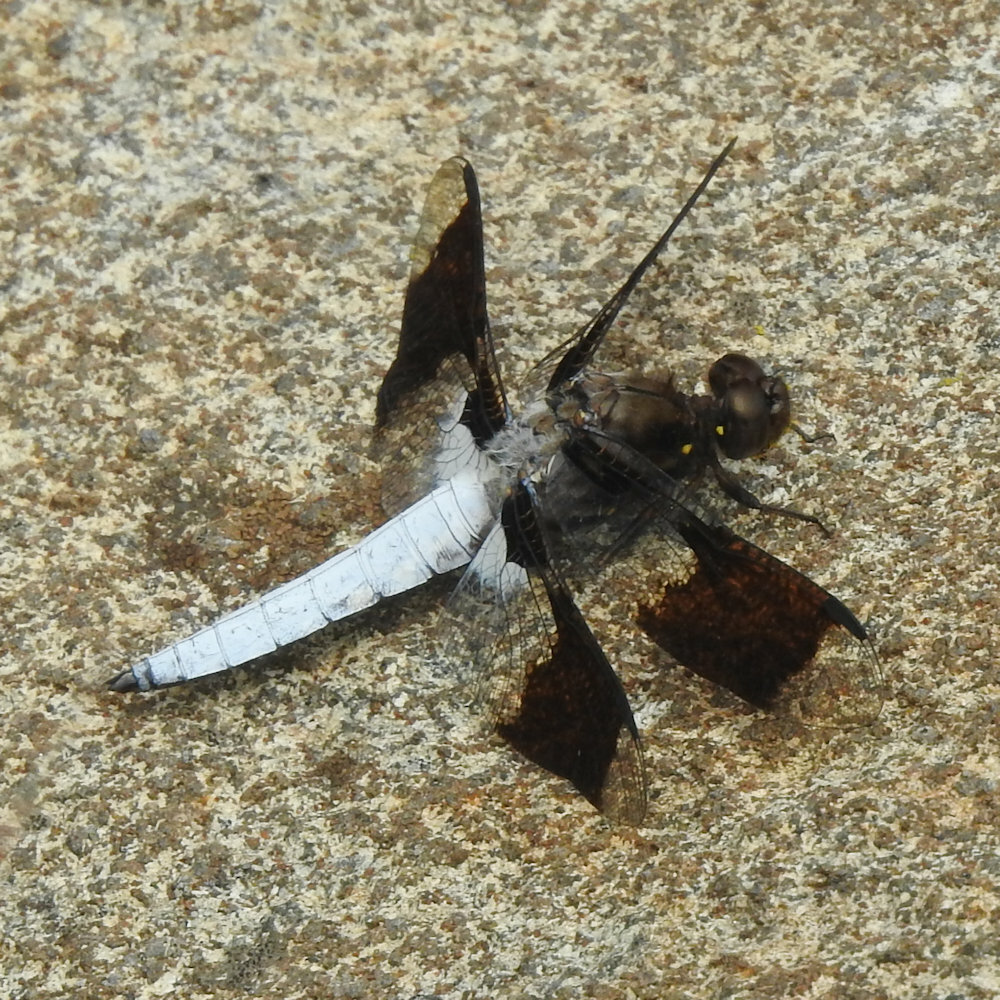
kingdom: Animalia
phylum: Arthropoda
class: Insecta
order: Odonata
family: Libellulidae
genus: Plathemis
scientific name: Plathemis lydia
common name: Common whitetail
